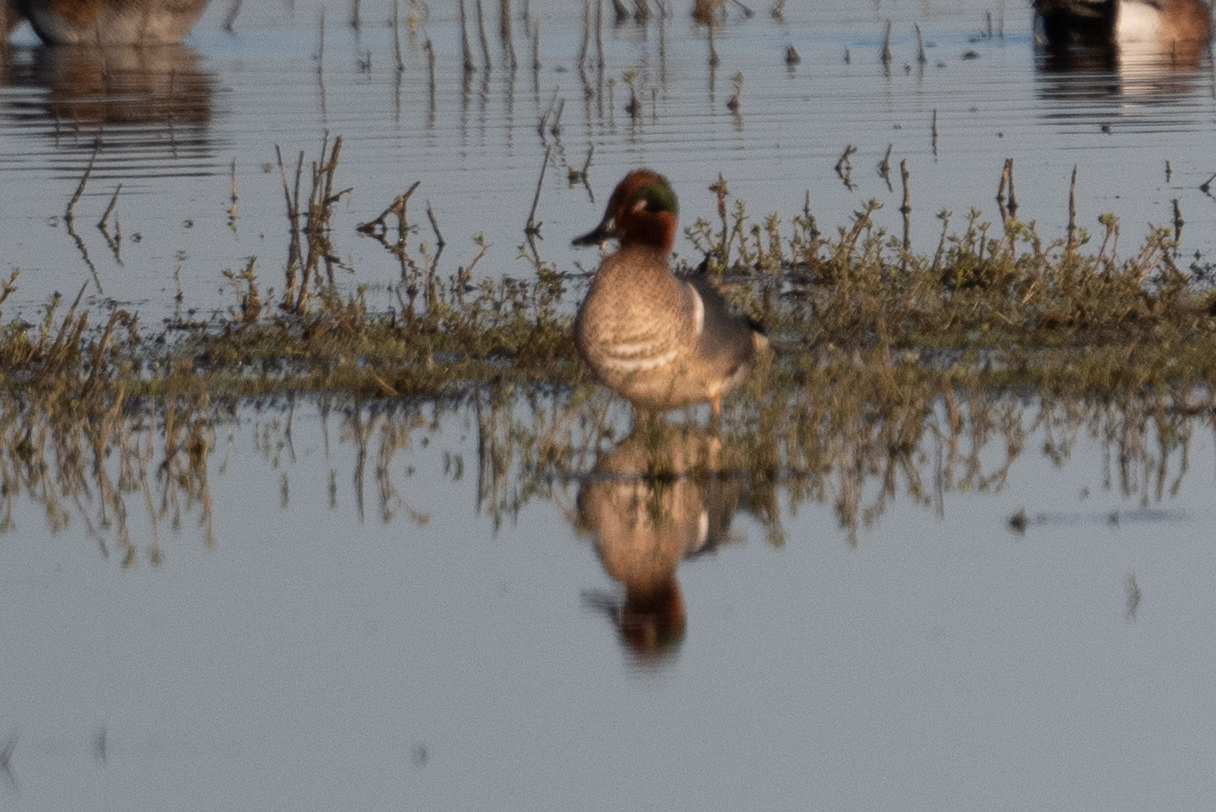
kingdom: Animalia
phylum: Chordata
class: Aves
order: Anseriformes
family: Anatidae
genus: Anas
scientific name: Anas crecca
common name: Eurasian teal
